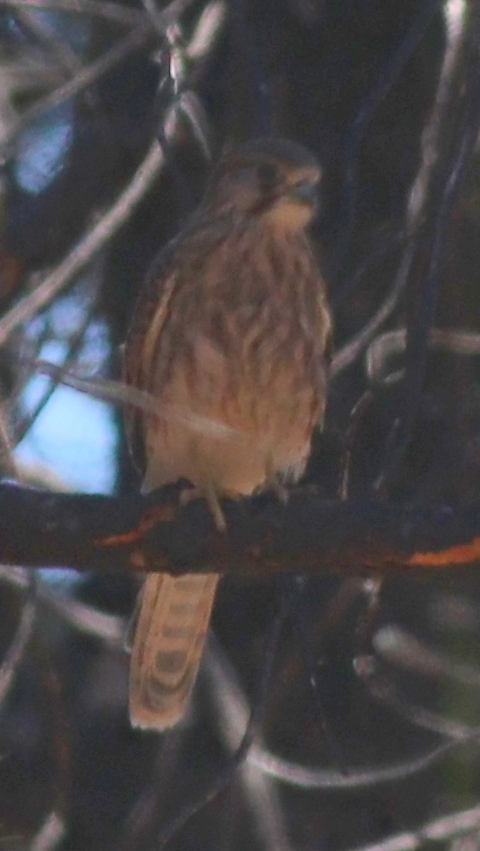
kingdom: Animalia
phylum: Chordata
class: Aves
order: Falconiformes
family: Falconidae
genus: Falco
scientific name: Falco tinnunculus
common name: Common kestrel
